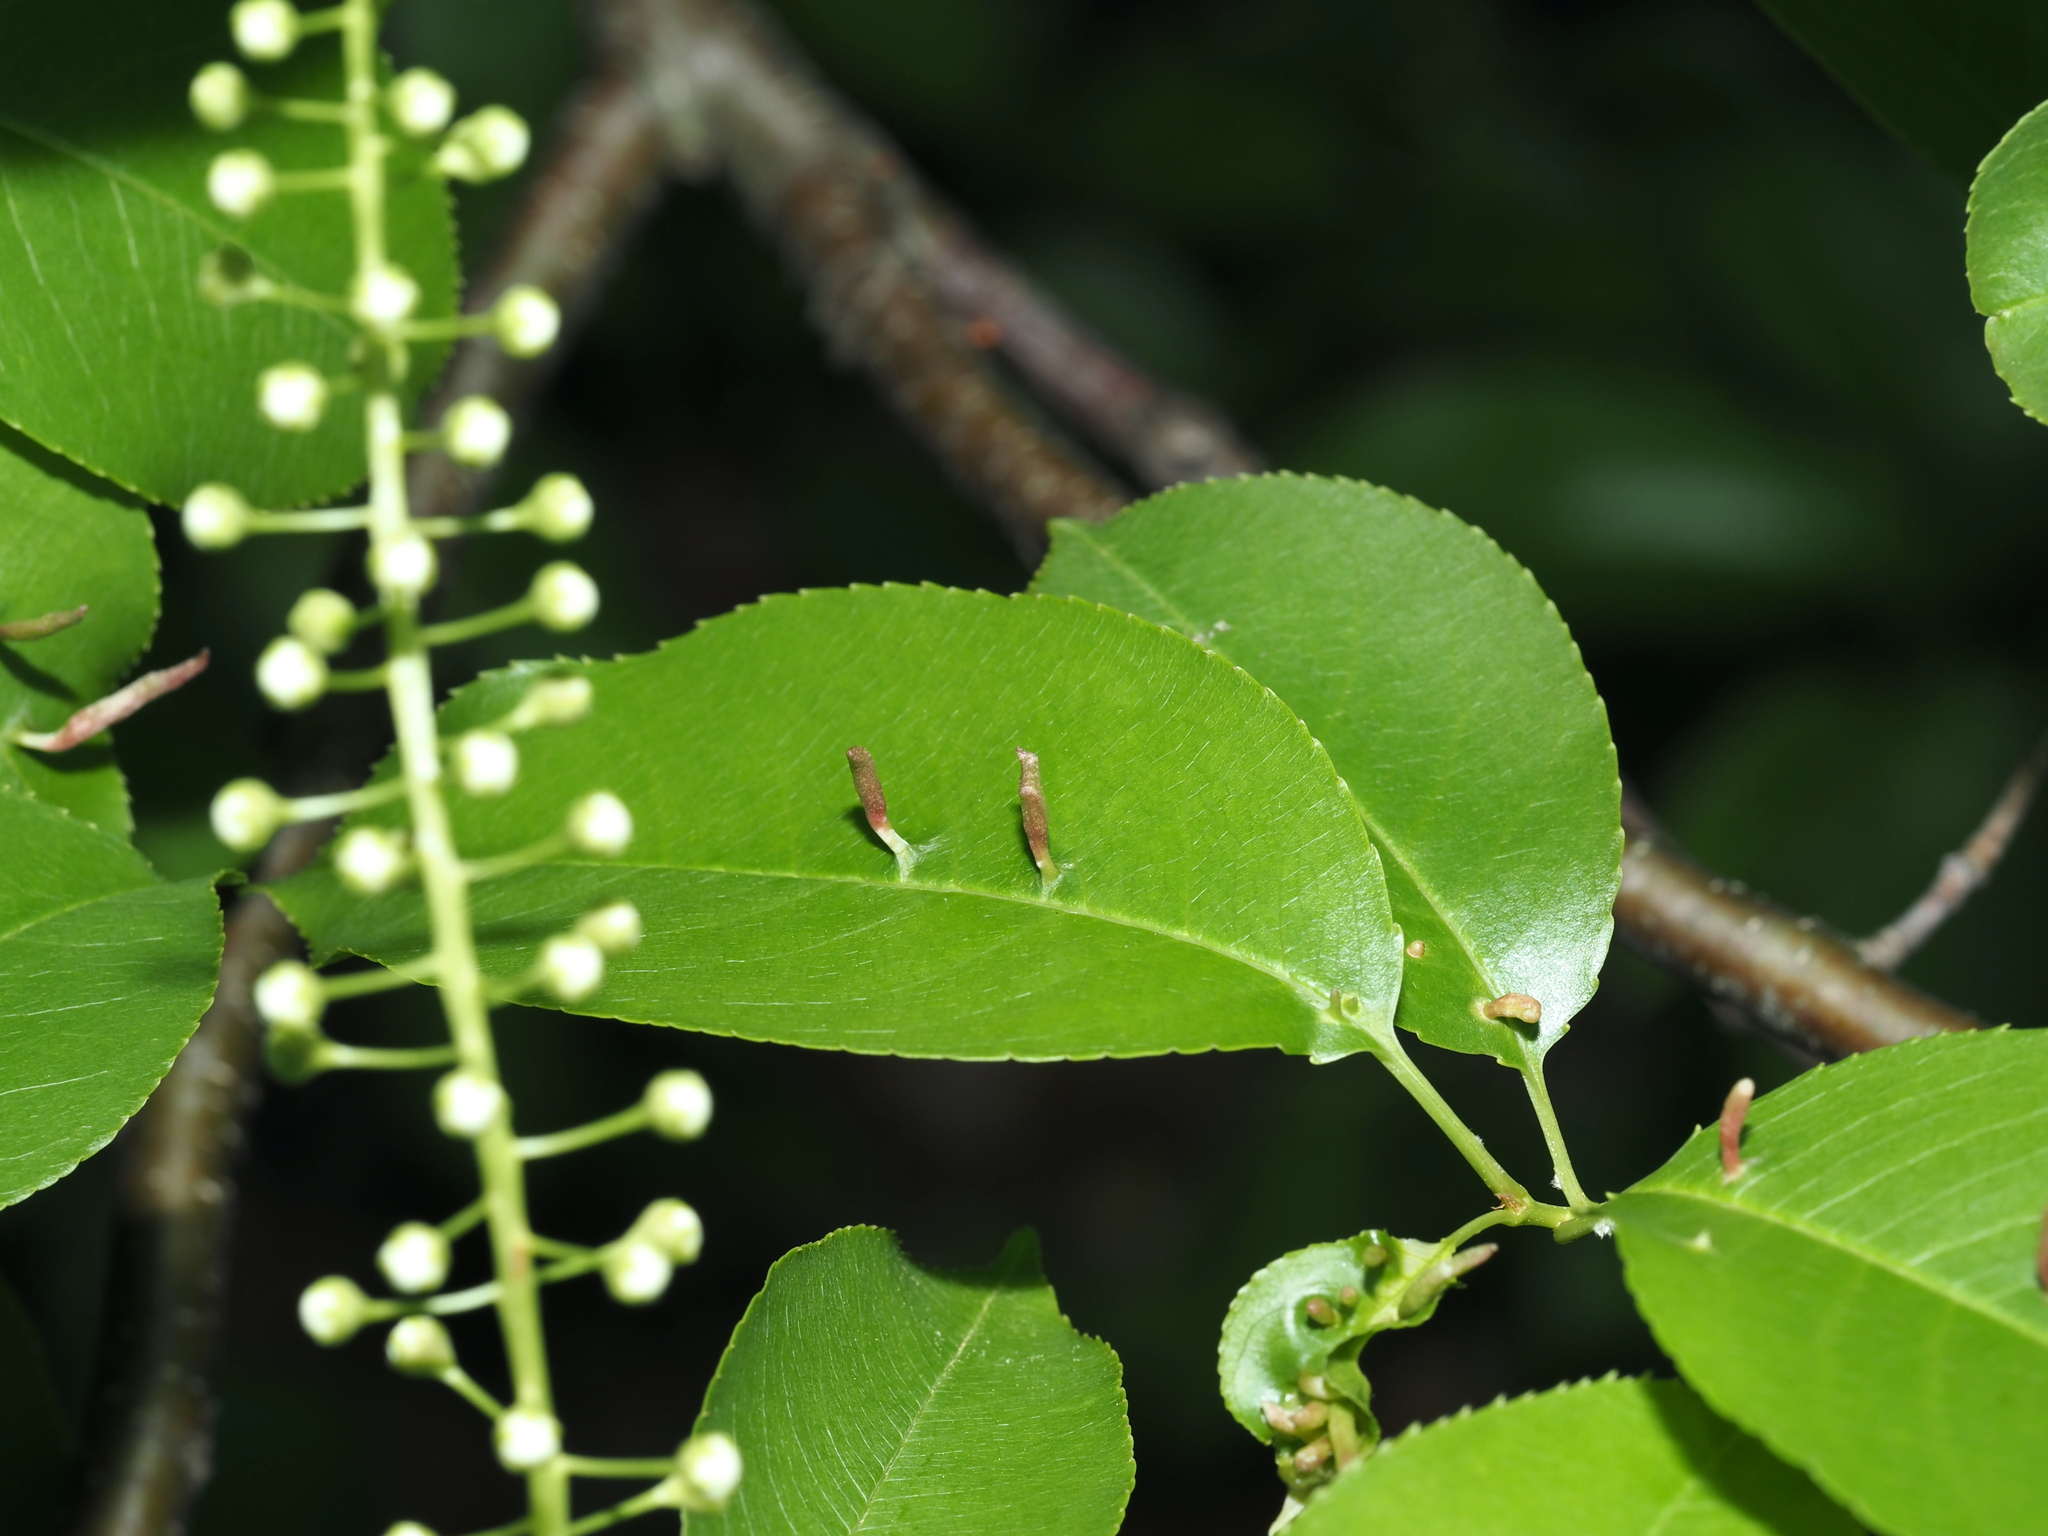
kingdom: Animalia
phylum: Arthropoda
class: Arachnida
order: Trombidiformes
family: Eriophyidae
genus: Eriophyes
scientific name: Eriophyes
